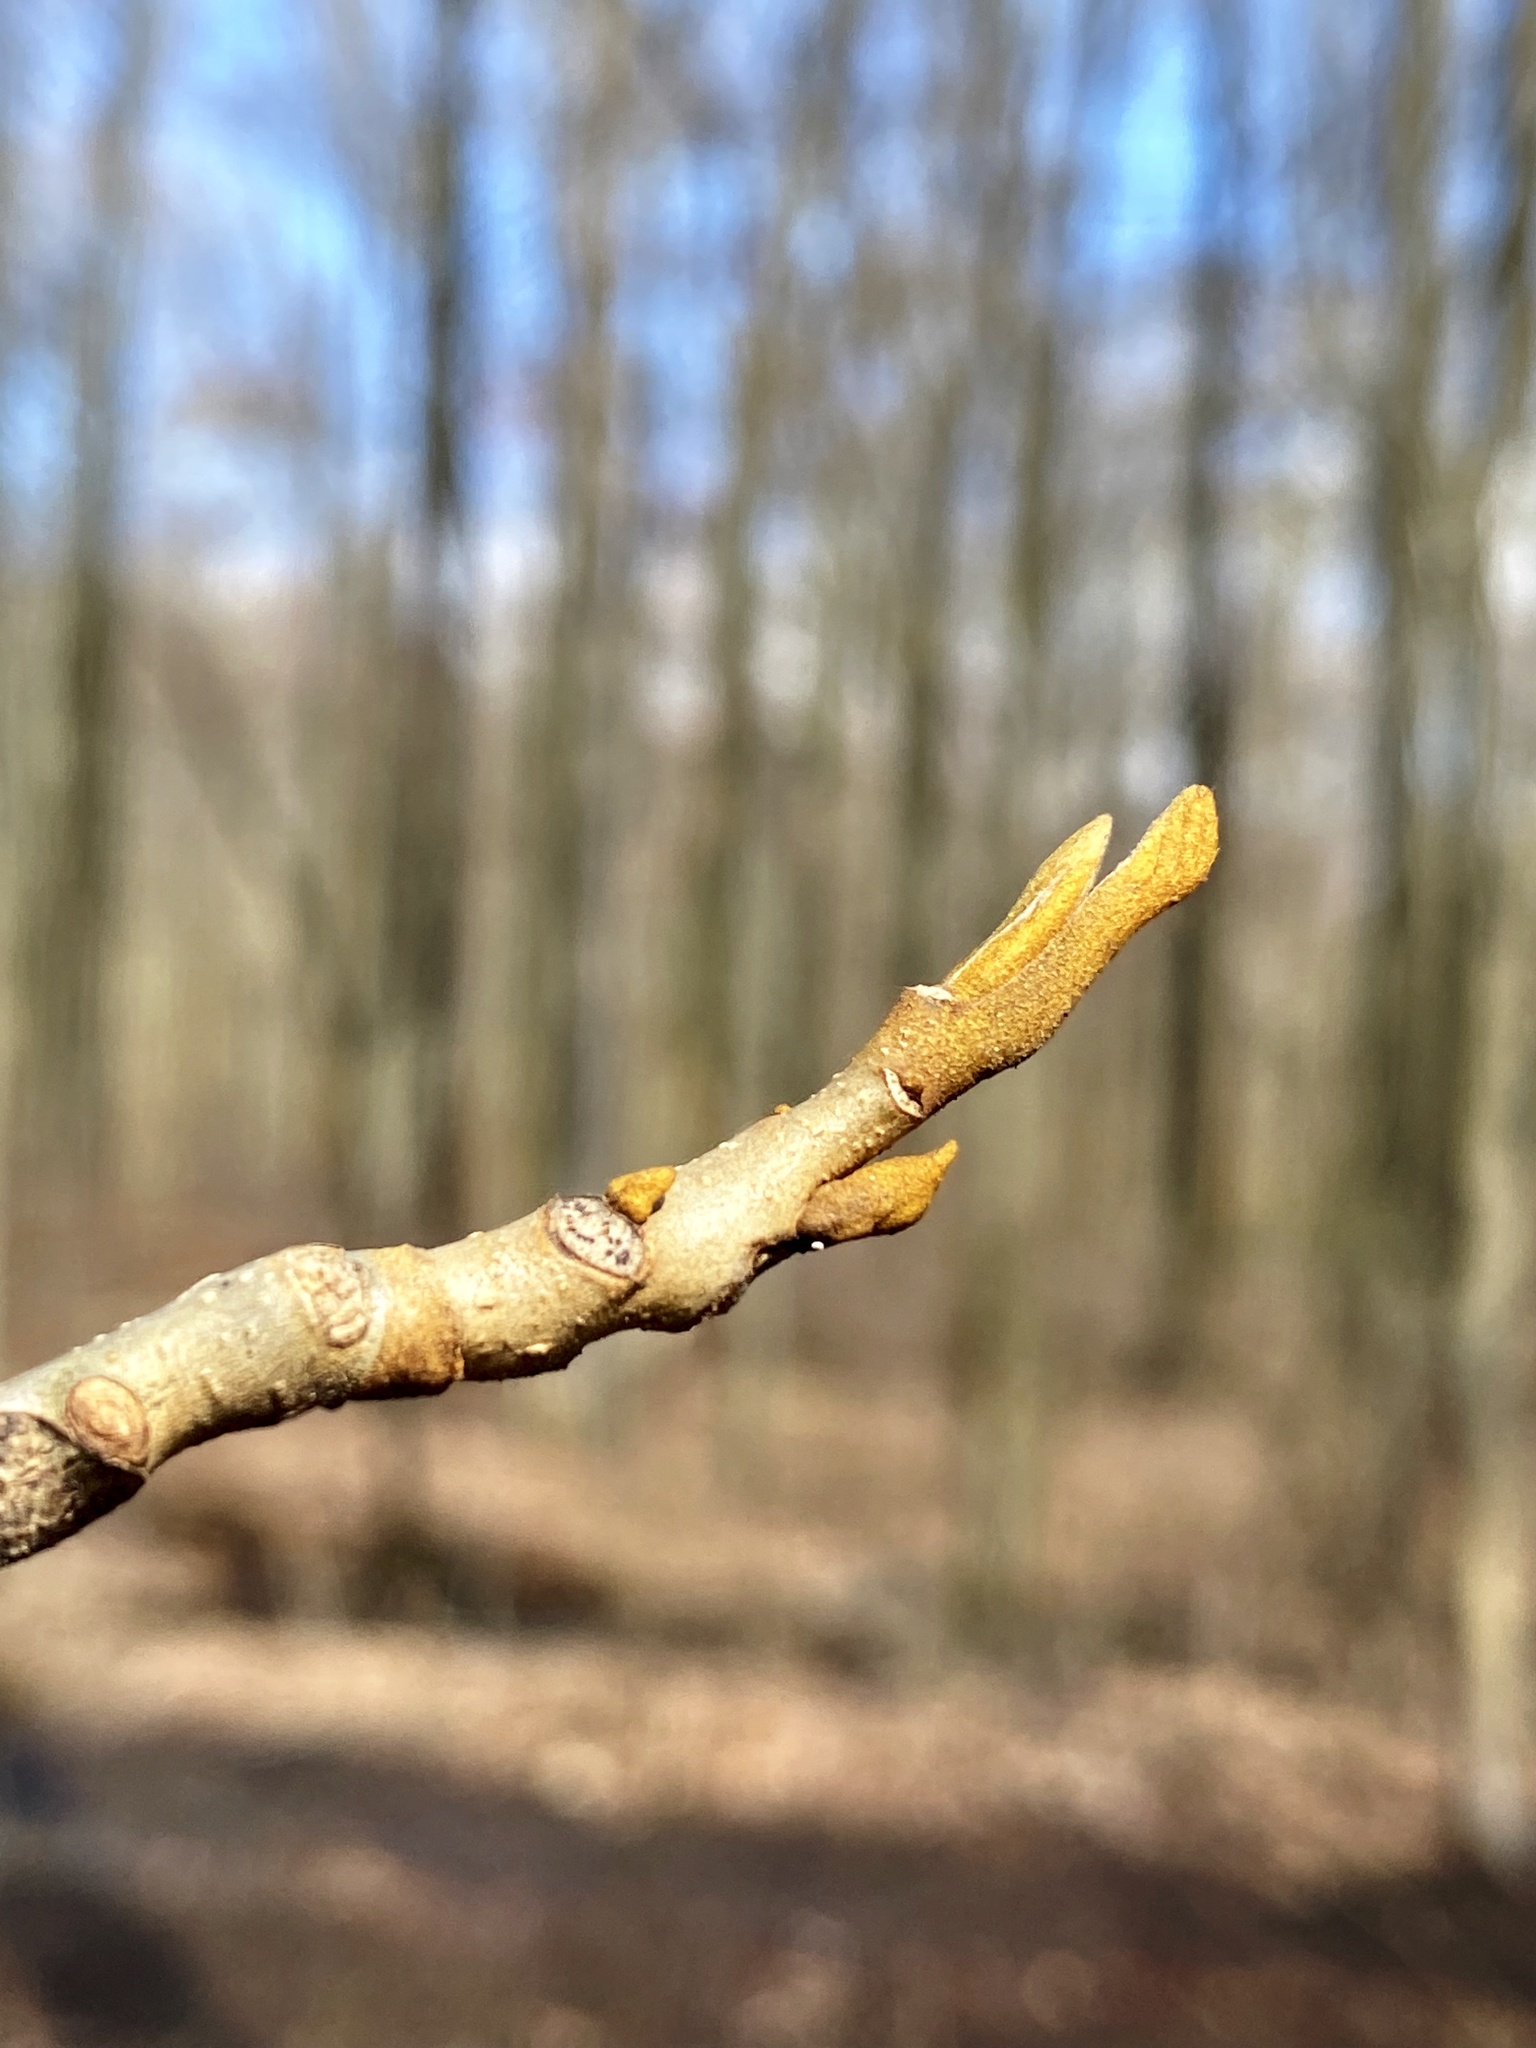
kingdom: Plantae
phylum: Tracheophyta
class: Magnoliopsida
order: Fagales
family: Juglandaceae
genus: Carya
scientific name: Carya cordiformis
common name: Bitternut hickory
